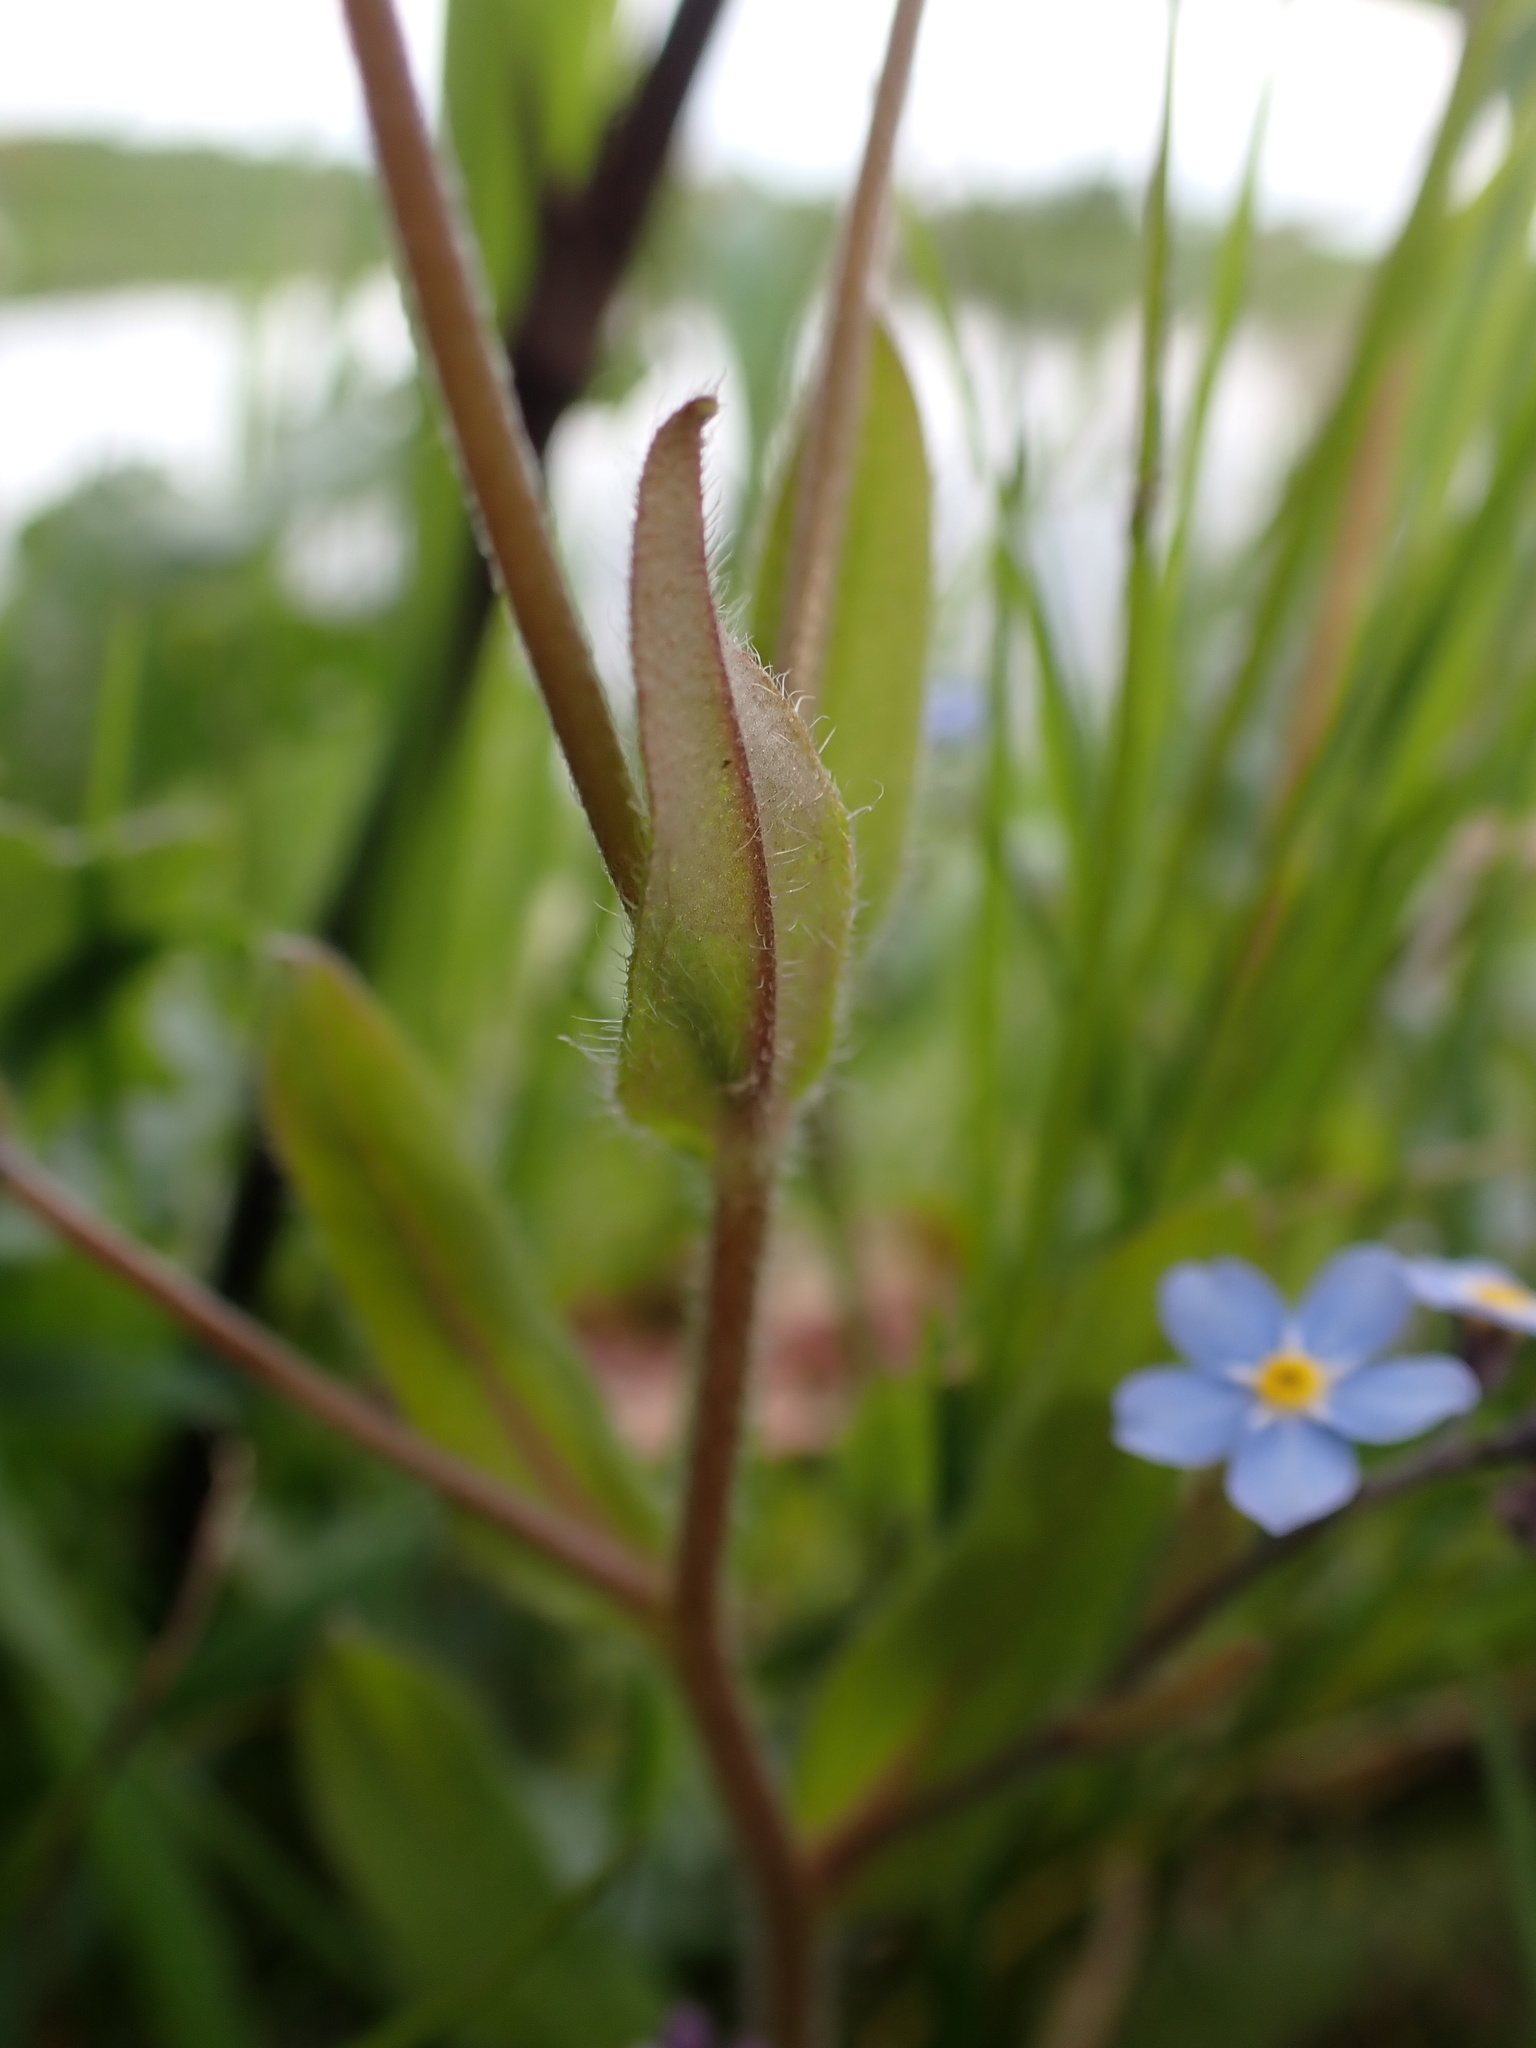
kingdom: Plantae
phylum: Tracheophyta
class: Magnoliopsida
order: Boraginales
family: Boraginaceae
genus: Myosotis
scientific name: Myosotis sylvatica
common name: Wood forget-me-not
